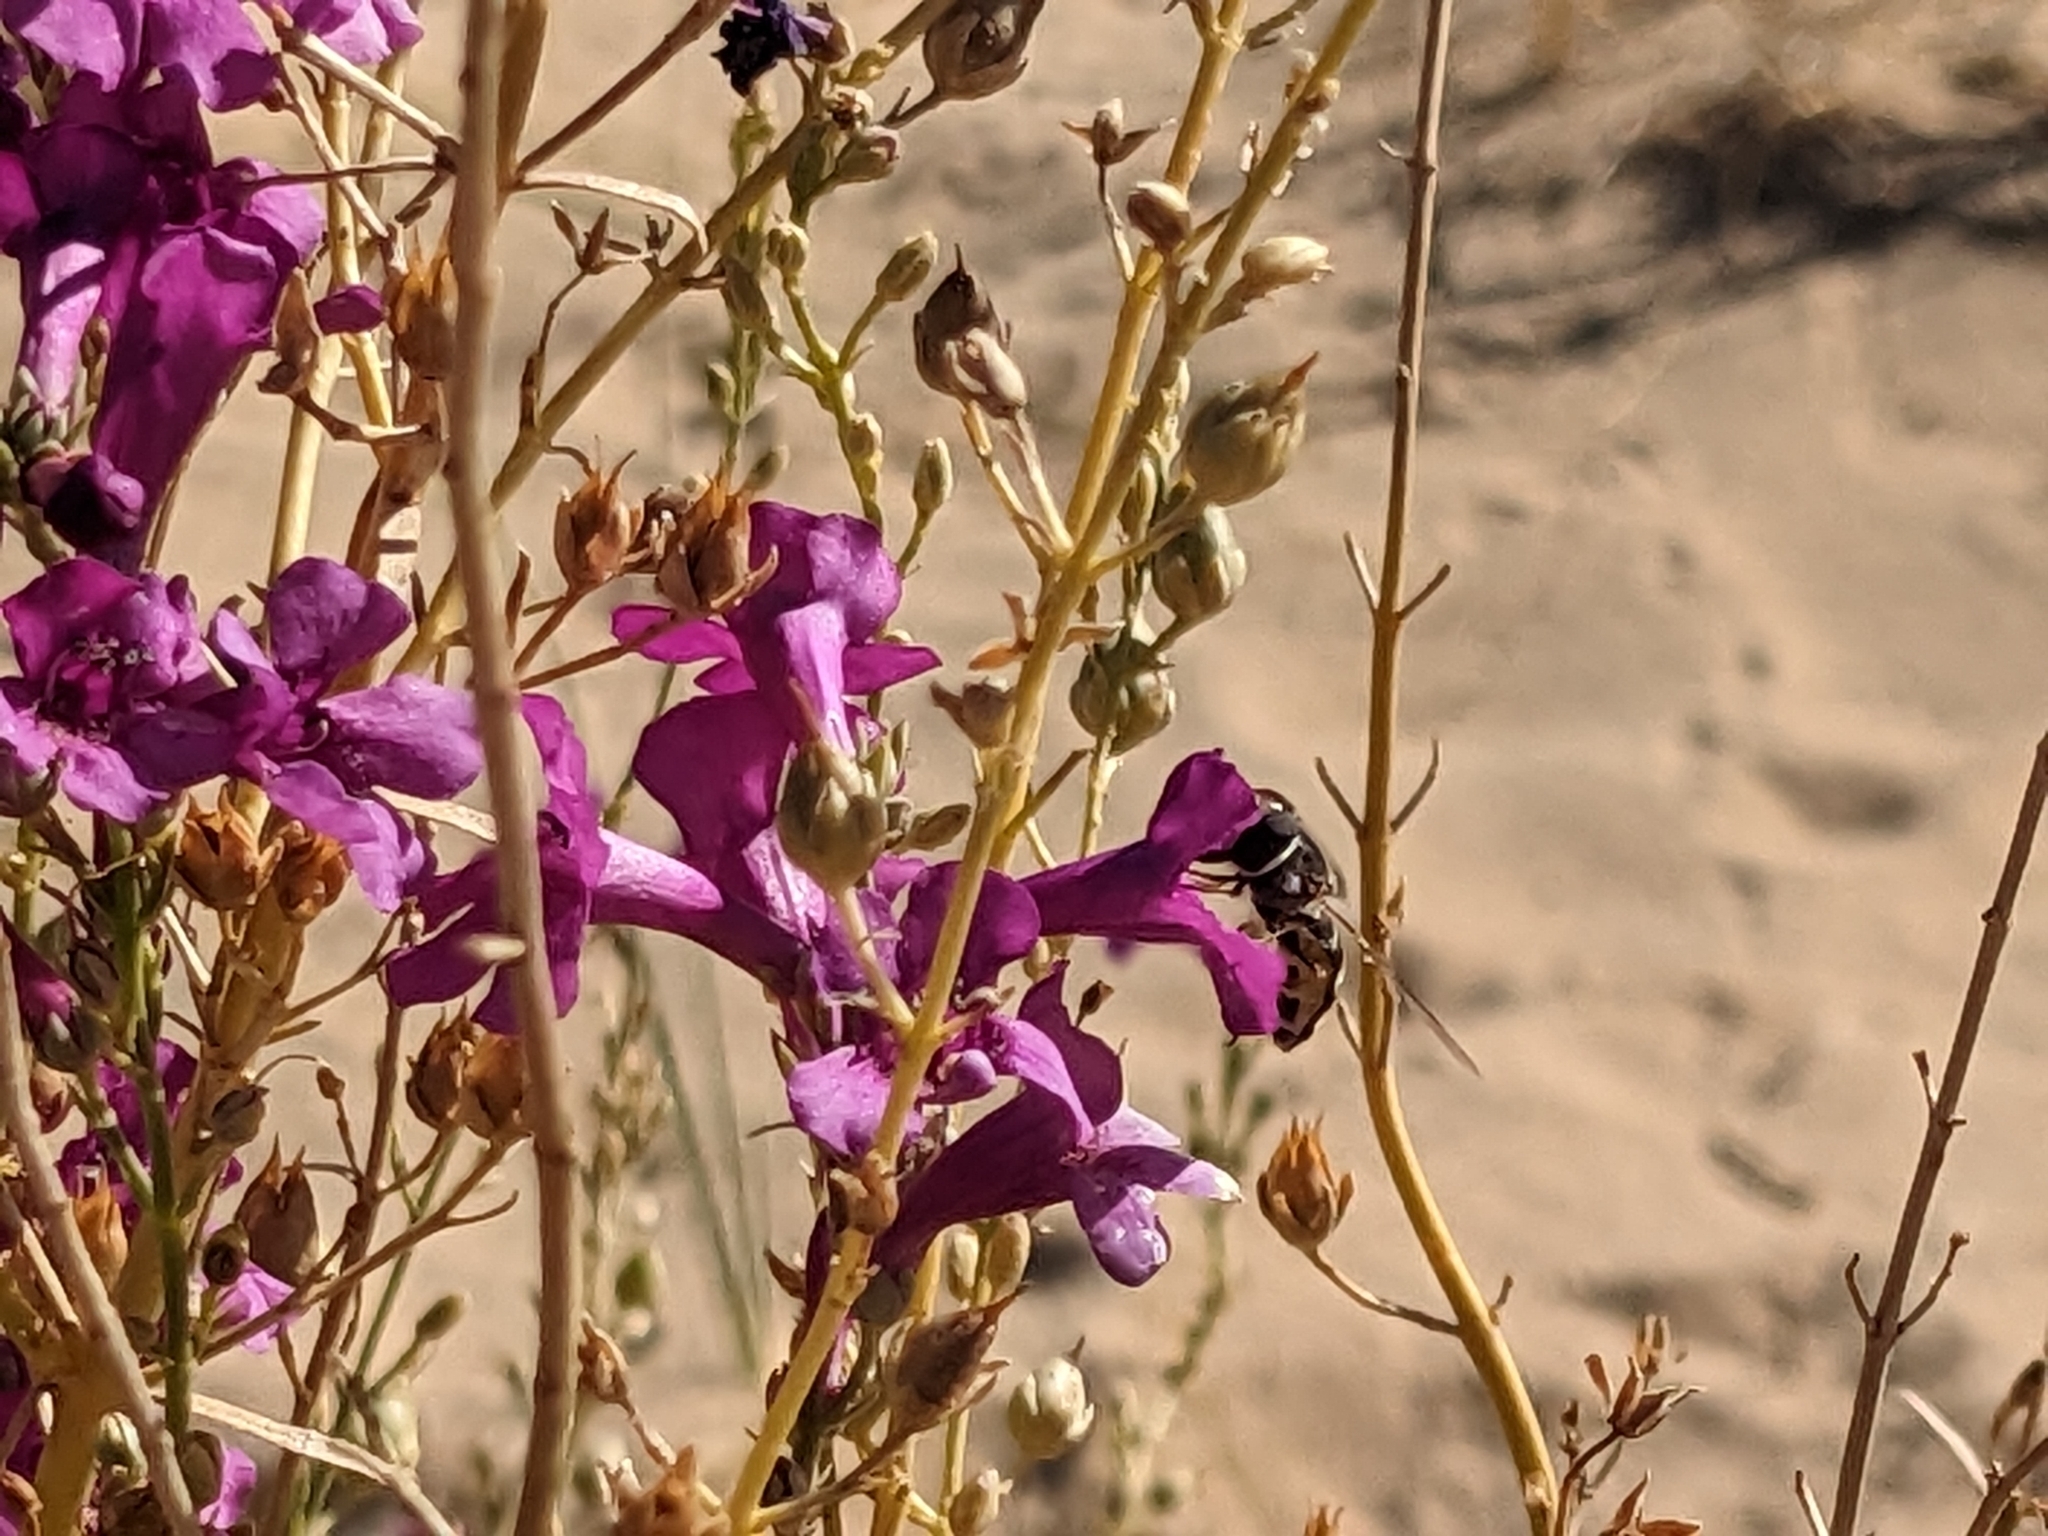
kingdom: Animalia
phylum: Arthropoda
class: Insecta
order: Diptera
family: Syrphidae
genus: Scaeva
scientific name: Scaeva affinis
